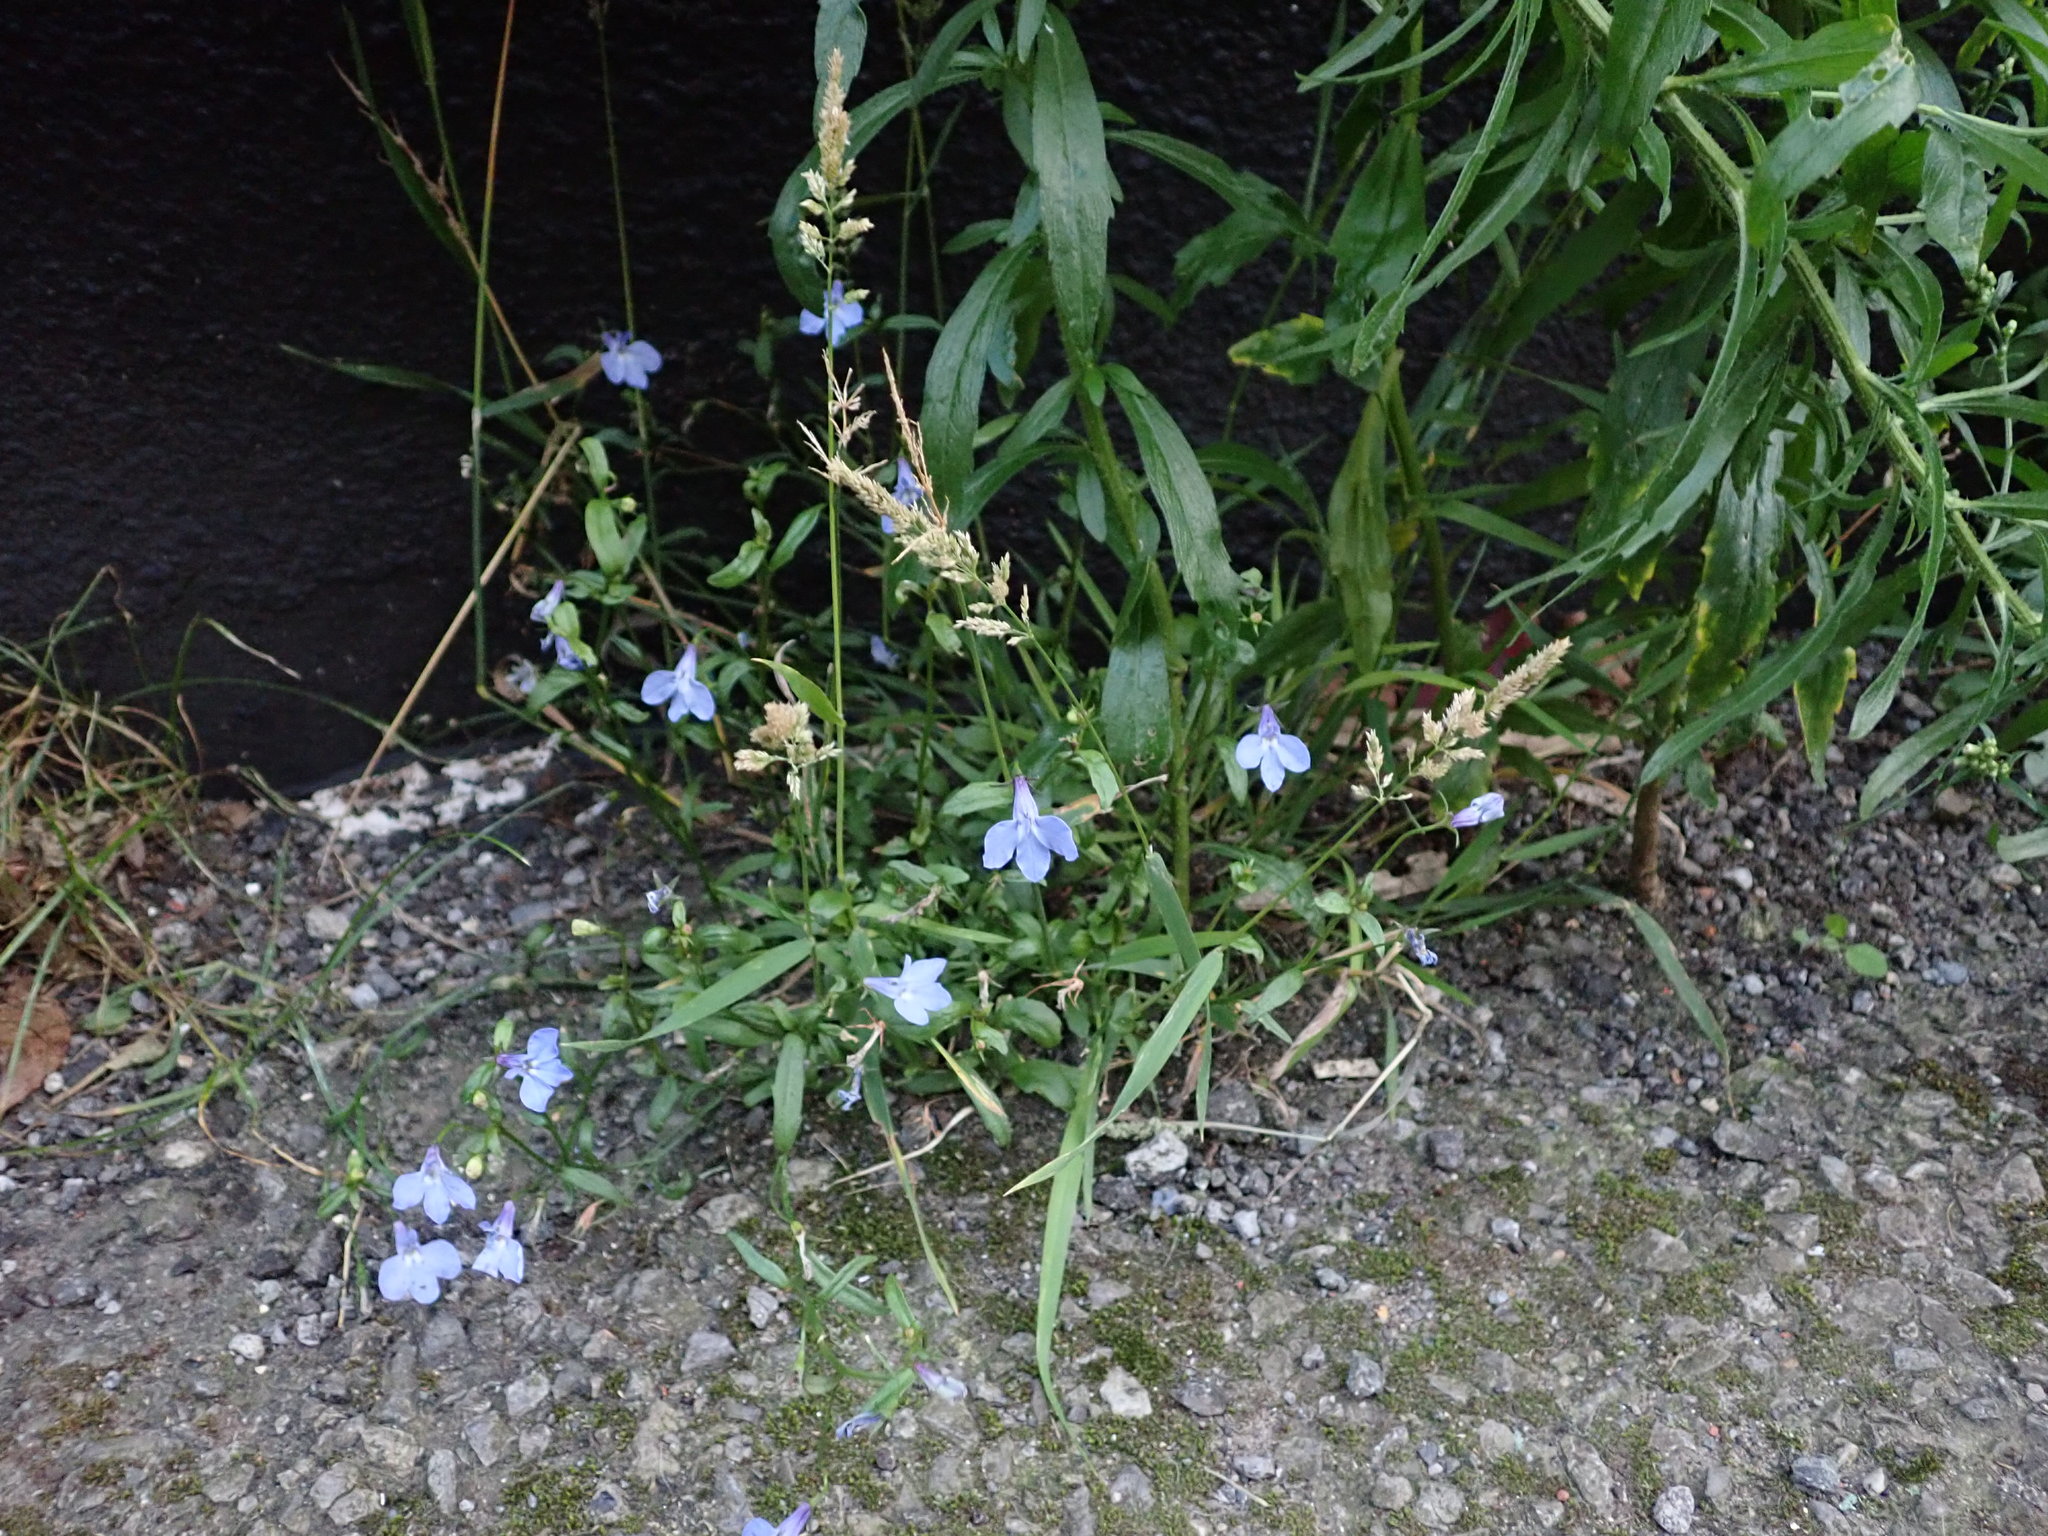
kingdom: Plantae
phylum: Tracheophyta
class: Magnoliopsida
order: Asterales
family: Campanulaceae
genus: Lobelia
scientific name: Lobelia erinus
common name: Edging lobelia
